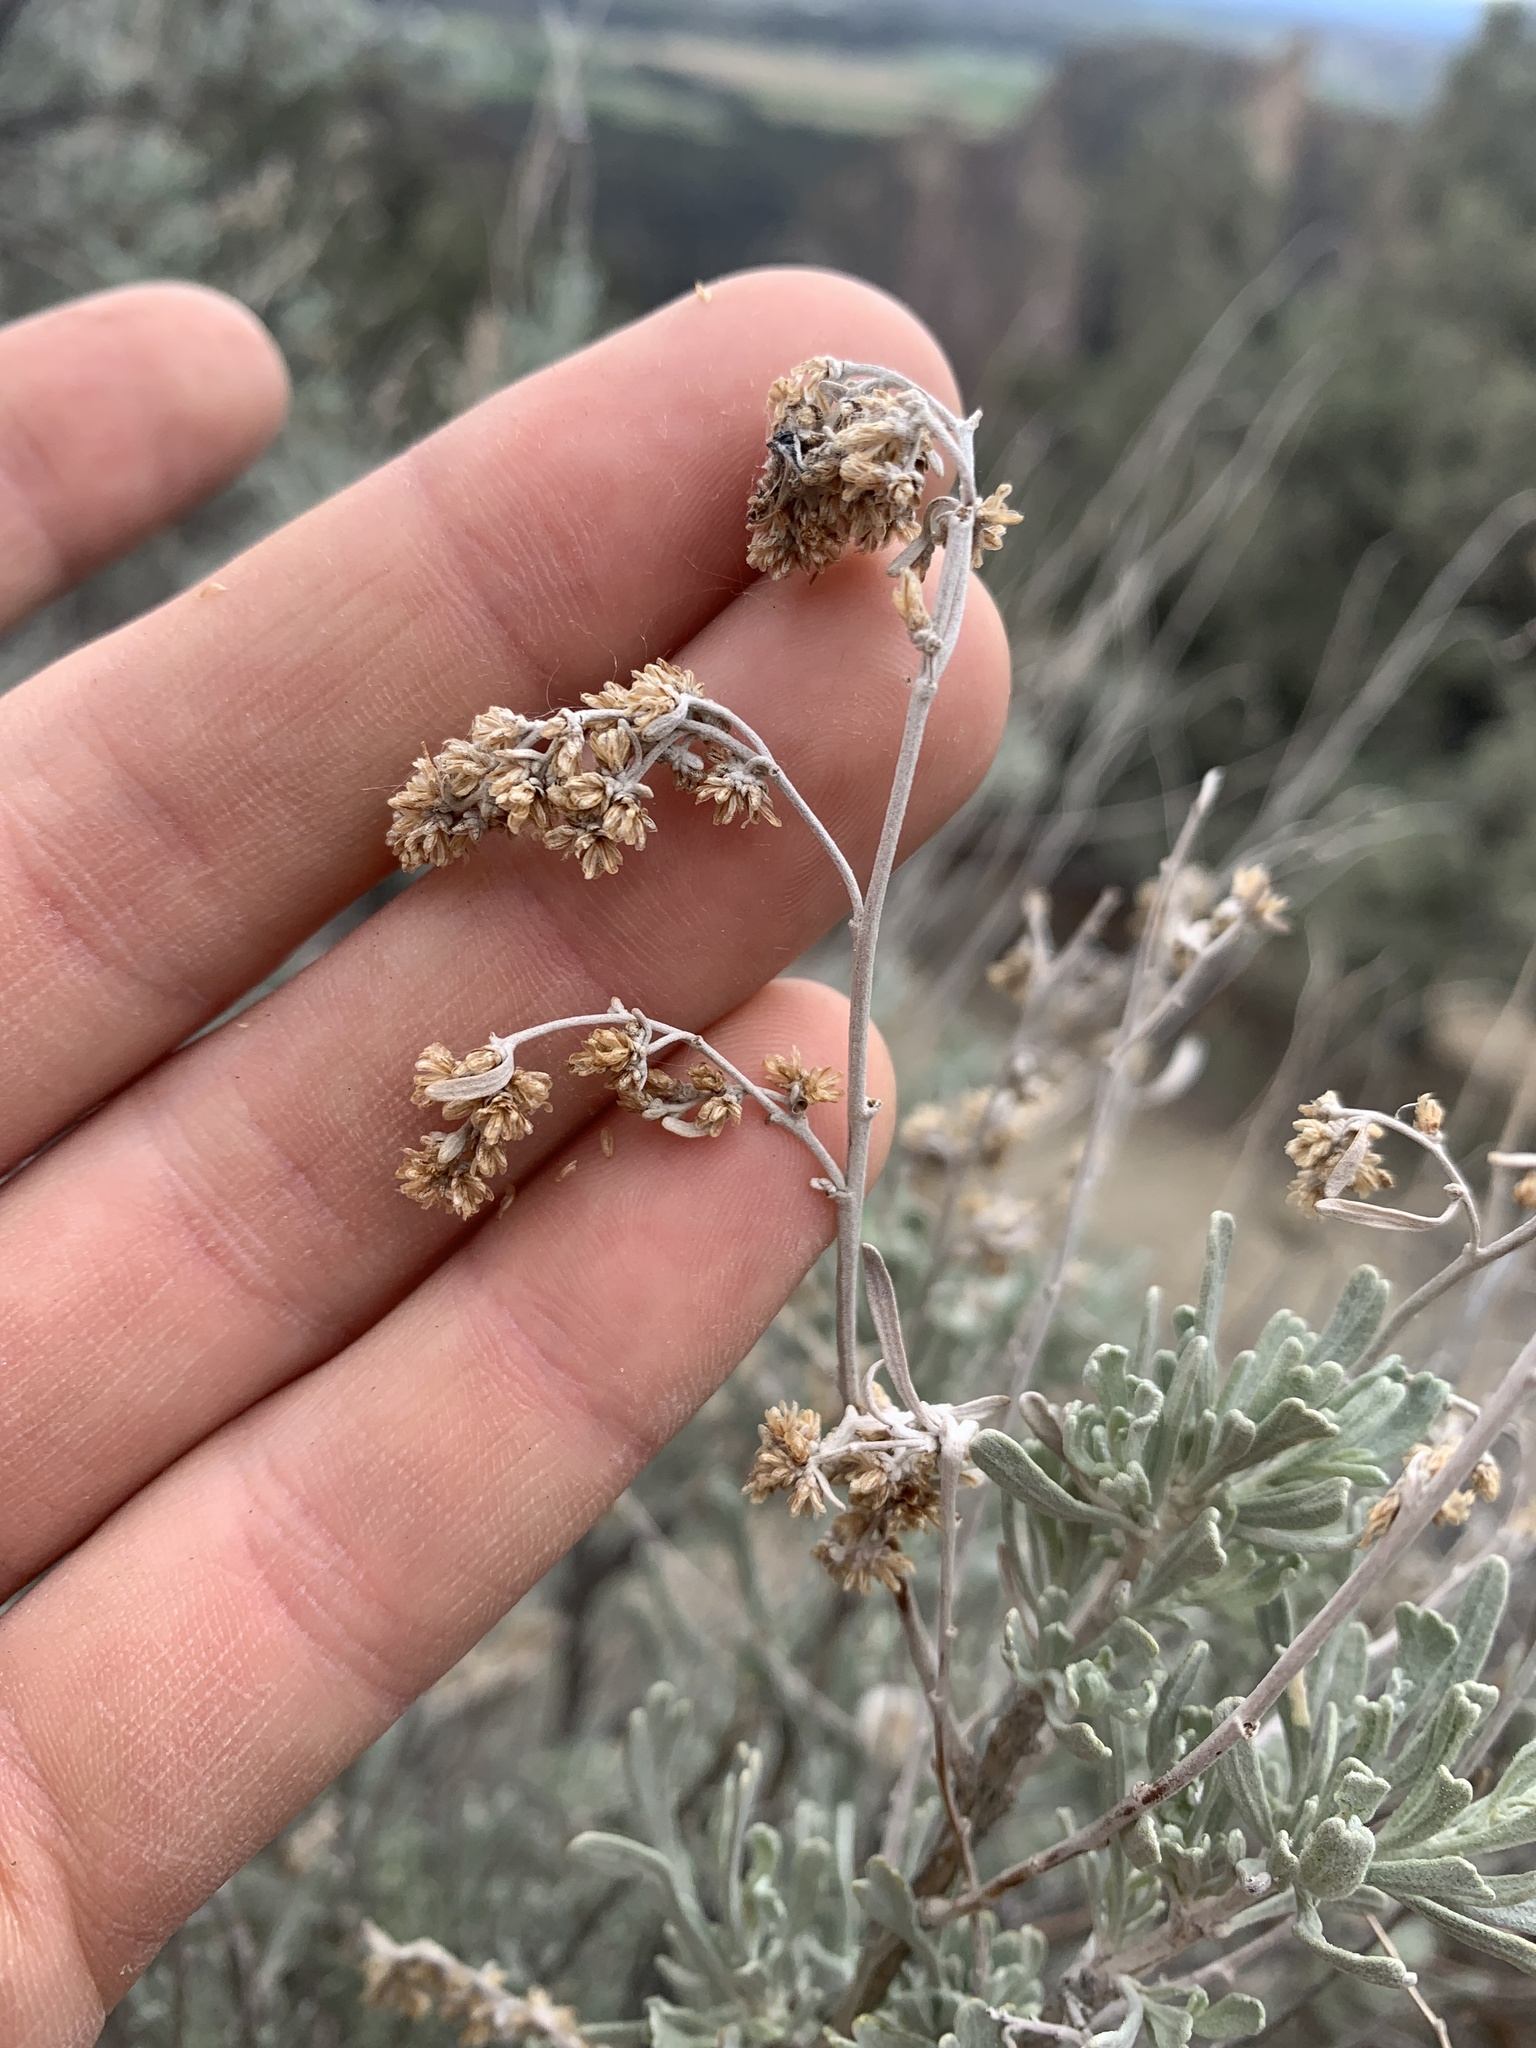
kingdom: Plantae
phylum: Tracheophyta
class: Magnoliopsida
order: Asterales
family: Asteraceae
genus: Artemisia
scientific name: Artemisia tridentata
